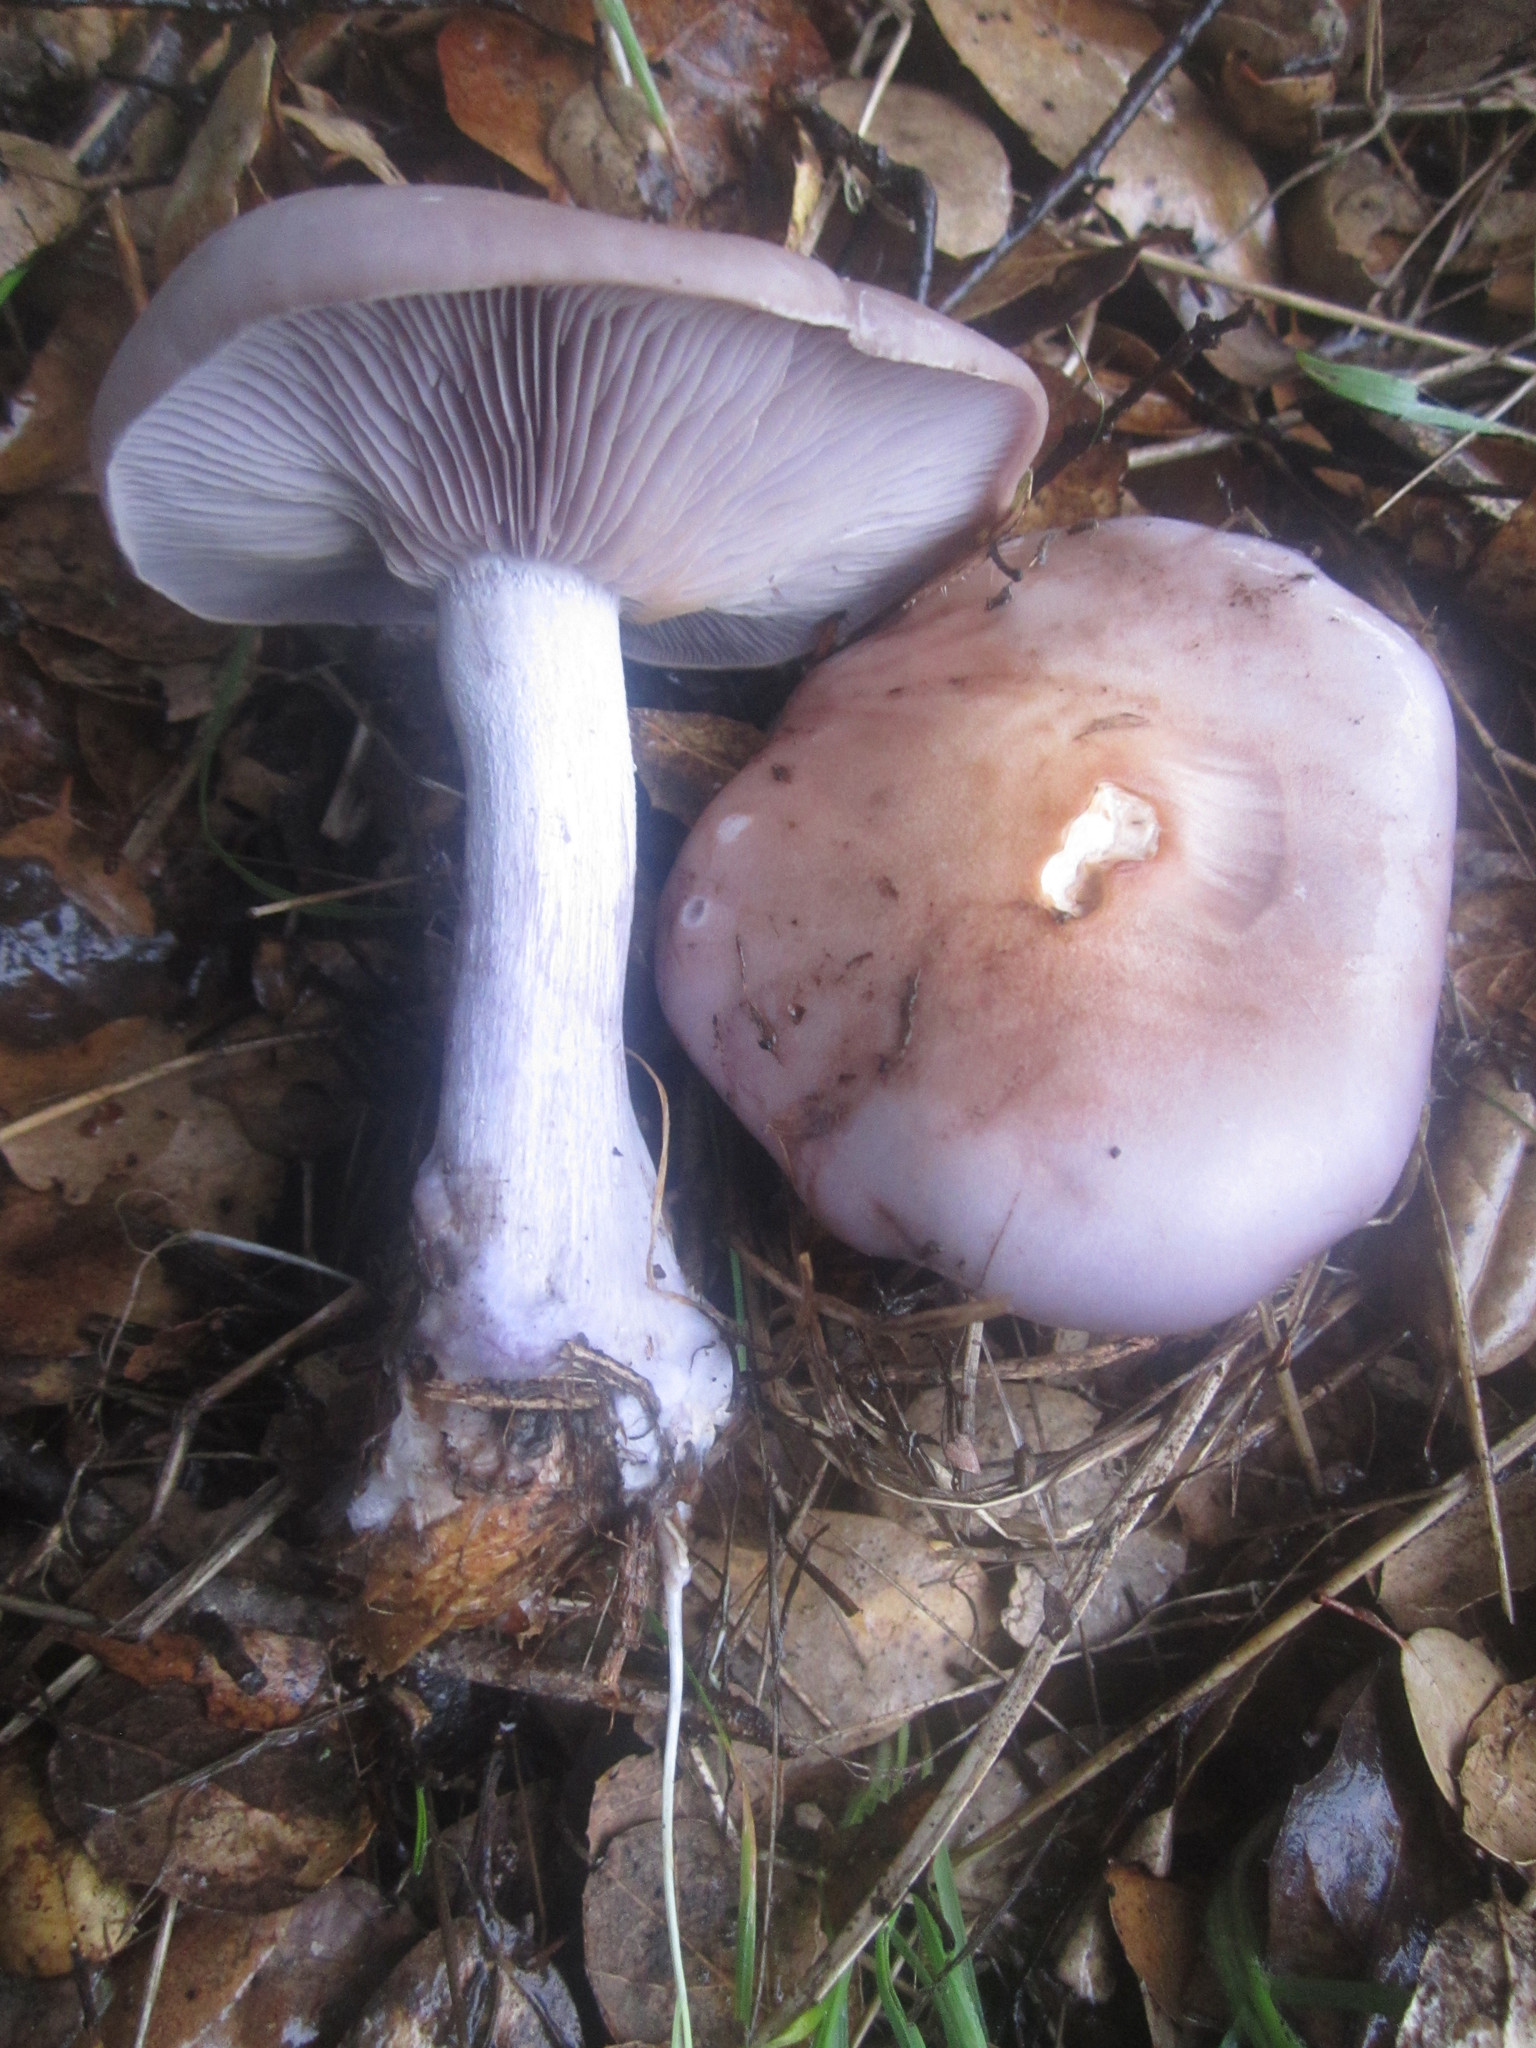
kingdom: Fungi
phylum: Basidiomycota
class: Agaricomycetes
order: Agaricales
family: Tricholomataceae
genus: Collybia
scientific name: Collybia
